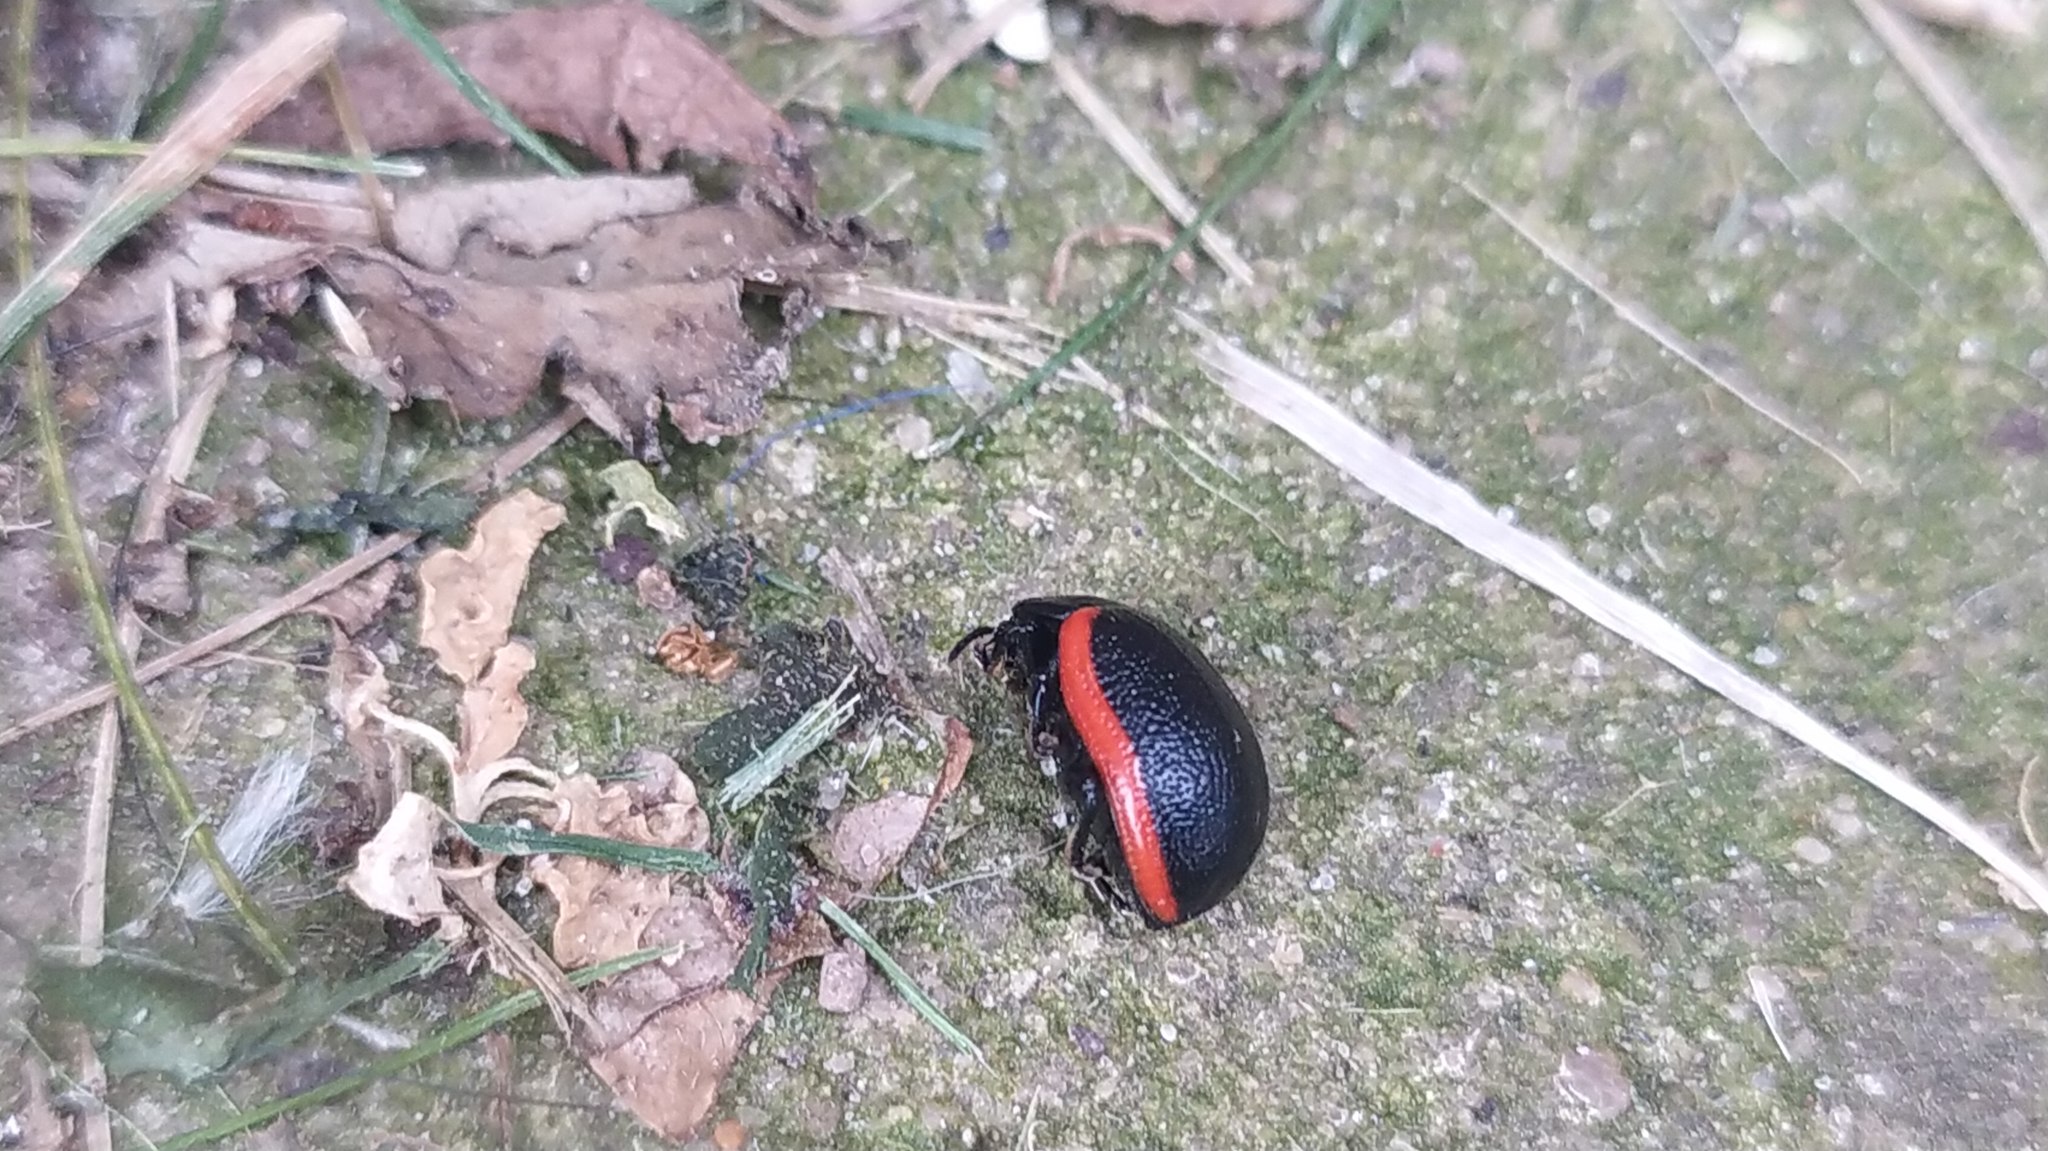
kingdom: Animalia
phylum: Arthropoda
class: Insecta
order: Coleoptera
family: Chrysomelidae
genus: Chrysolina
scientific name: Chrysolina sanguinolenta
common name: Toadflax leaf beetle
